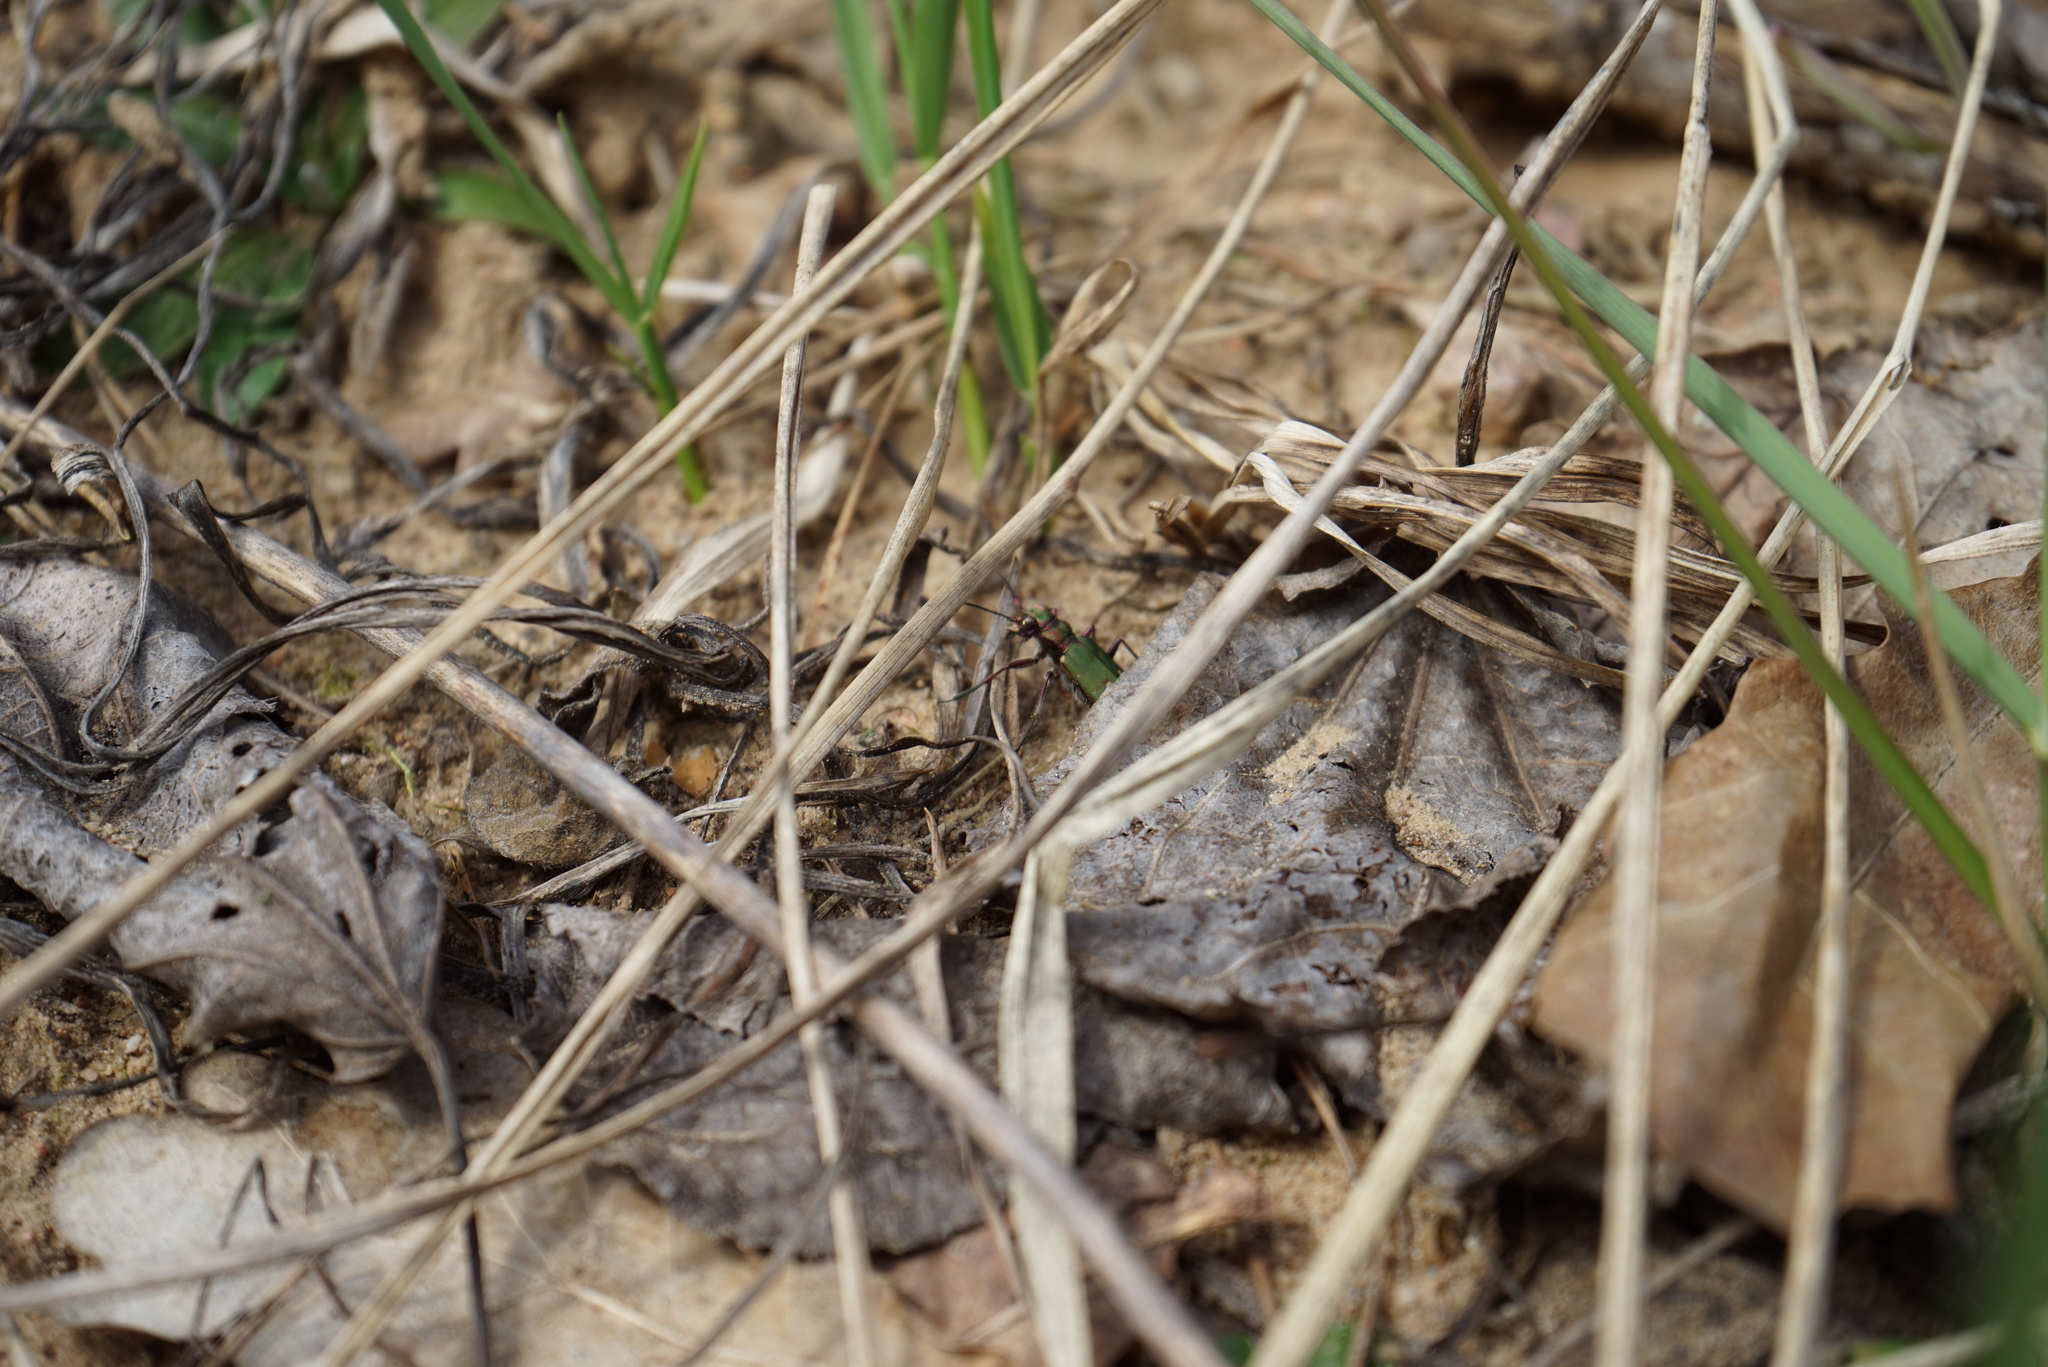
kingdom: Animalia
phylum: Arthropoda
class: Insecta
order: Coleoptera
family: Carabidae
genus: Cicindela
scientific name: Cicindela campestris
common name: Common tiger beetle
